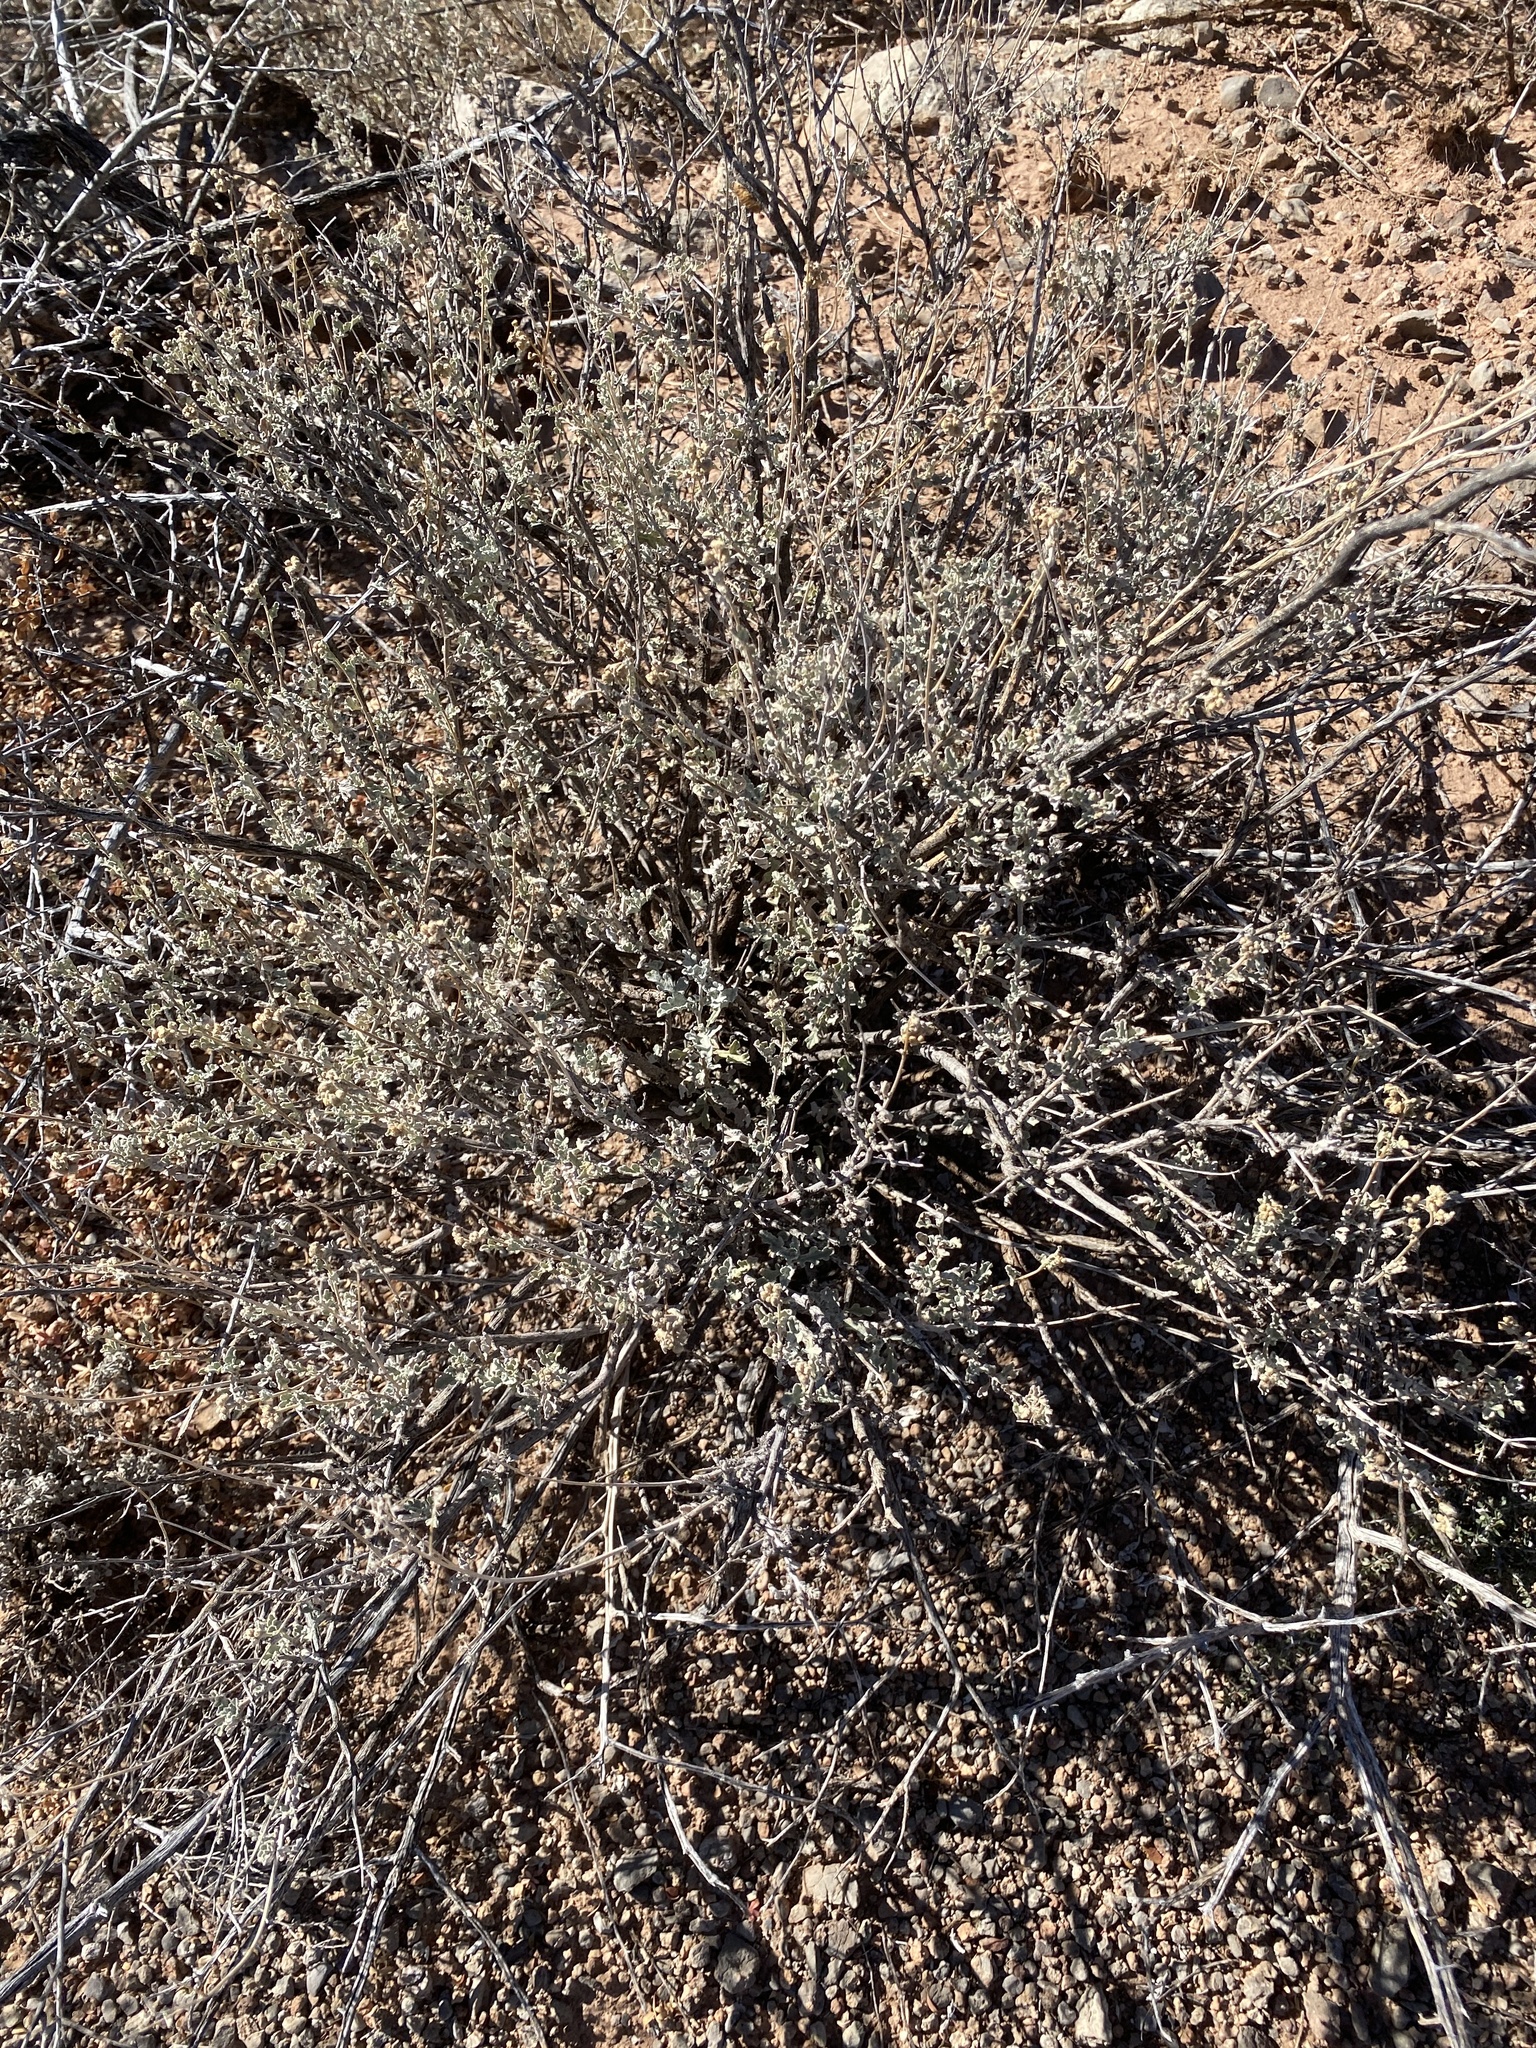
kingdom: Plantae
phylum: Tracheophyta
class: Magnoliopsida
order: Asterales
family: Asteraceae
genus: Parthenium
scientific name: Parthenium incanum
